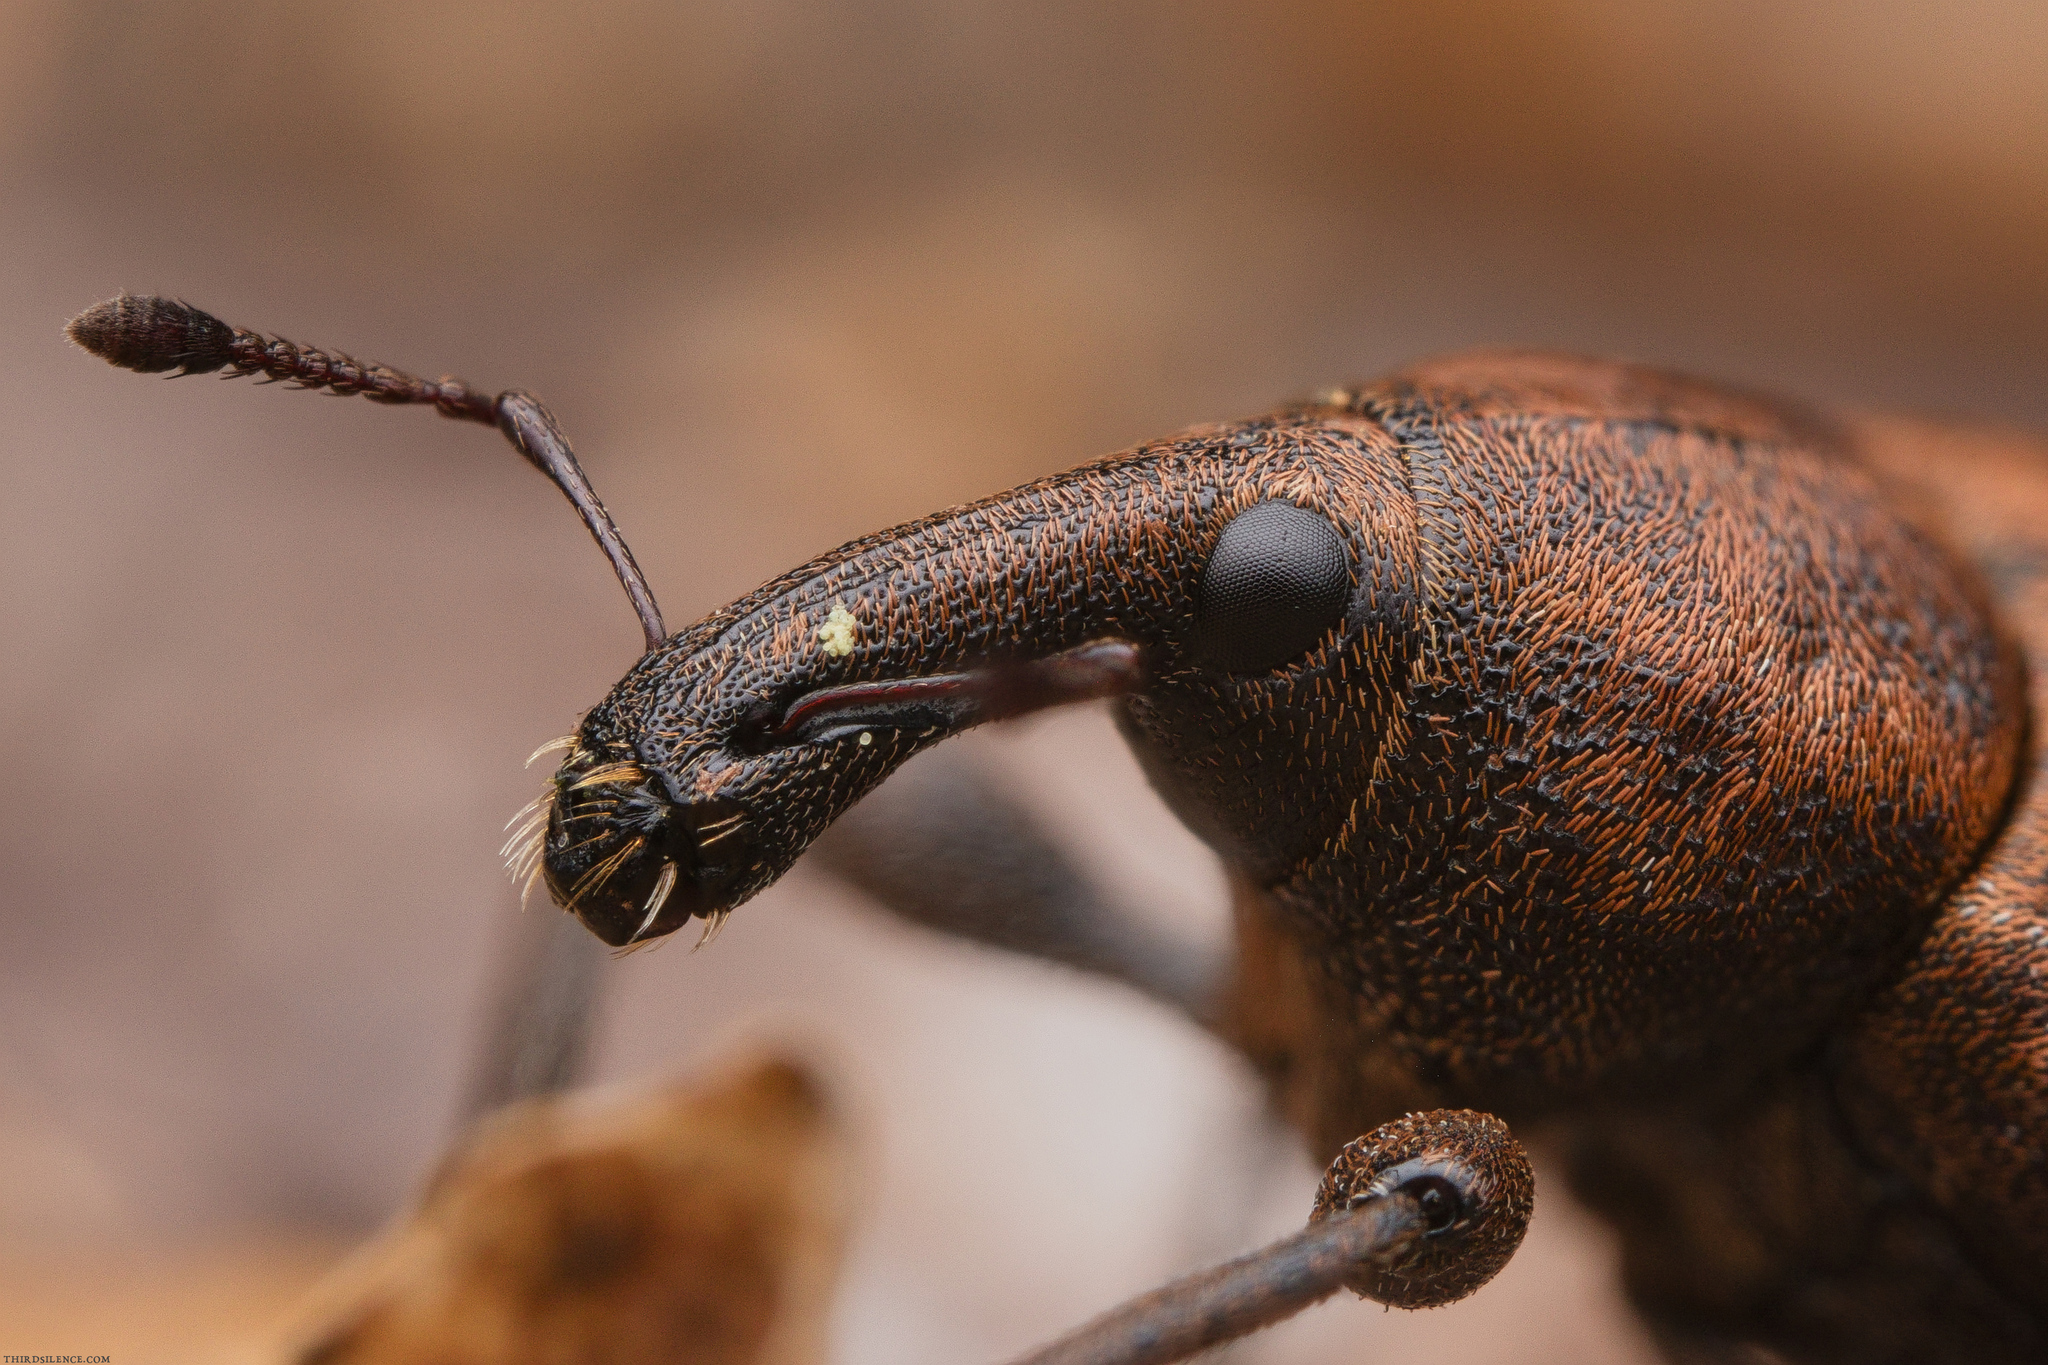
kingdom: Animalia
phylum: Arthropoda
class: Insecta
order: Coleoptera
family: Curculionidae
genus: Lepyrus
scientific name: Lepyrus capucinus
